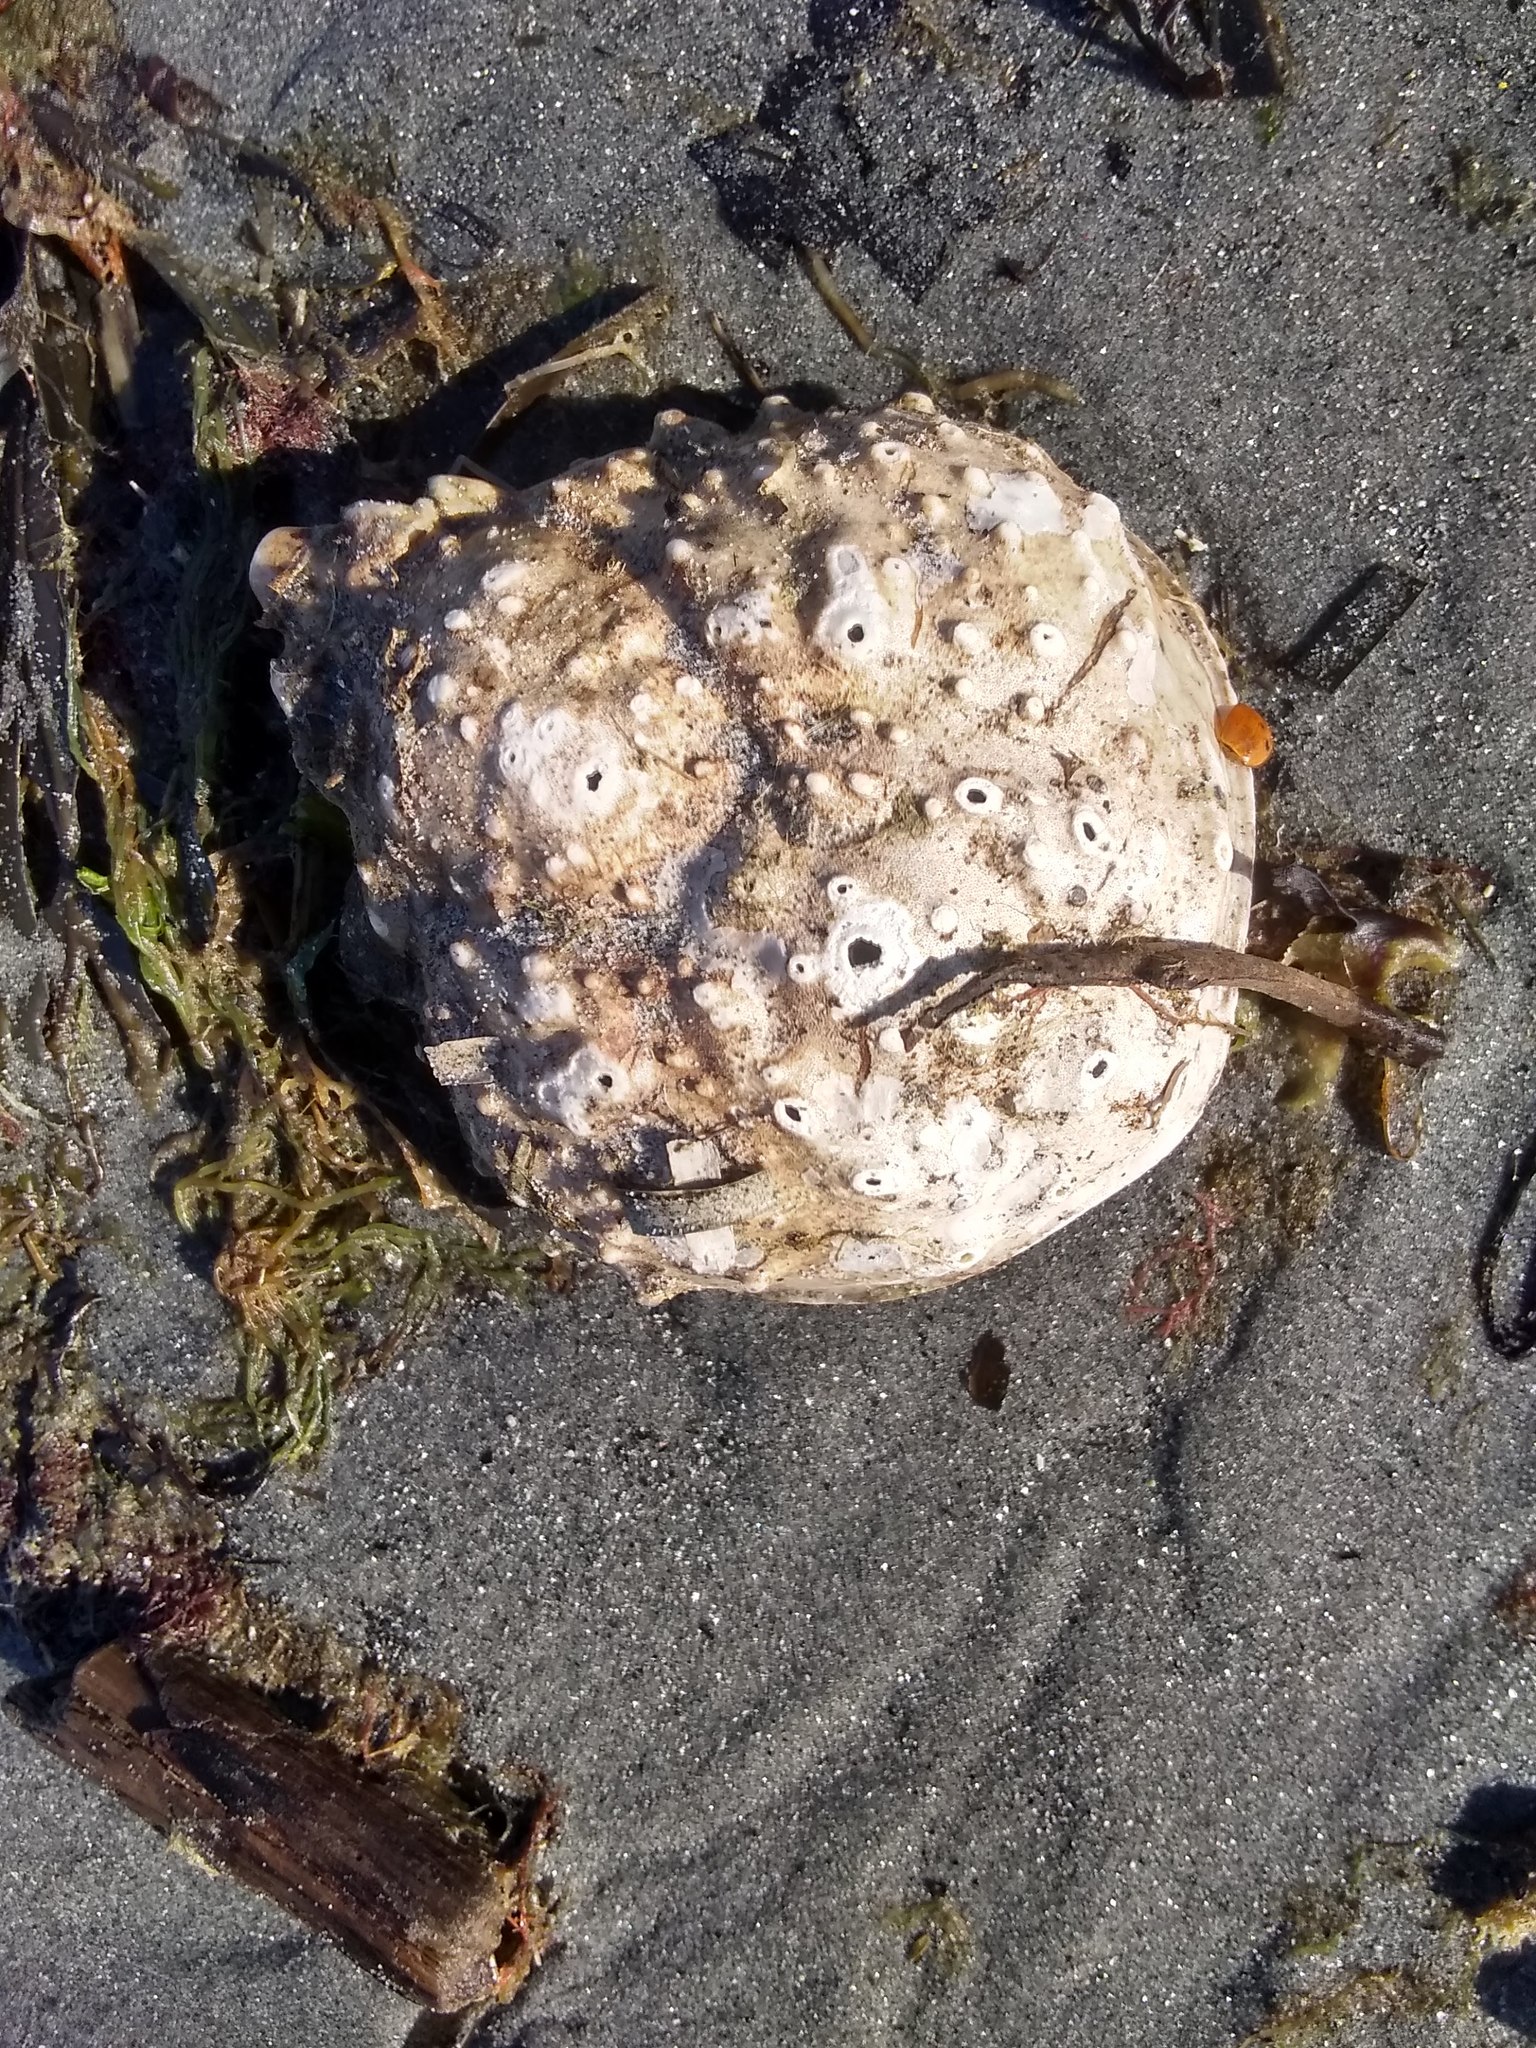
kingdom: Animalia
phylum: Arthropoda
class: Malacostraca
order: Decapoda
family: Epialtidae
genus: Libinia
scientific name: Libinia emarginata
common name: Common spider crab
